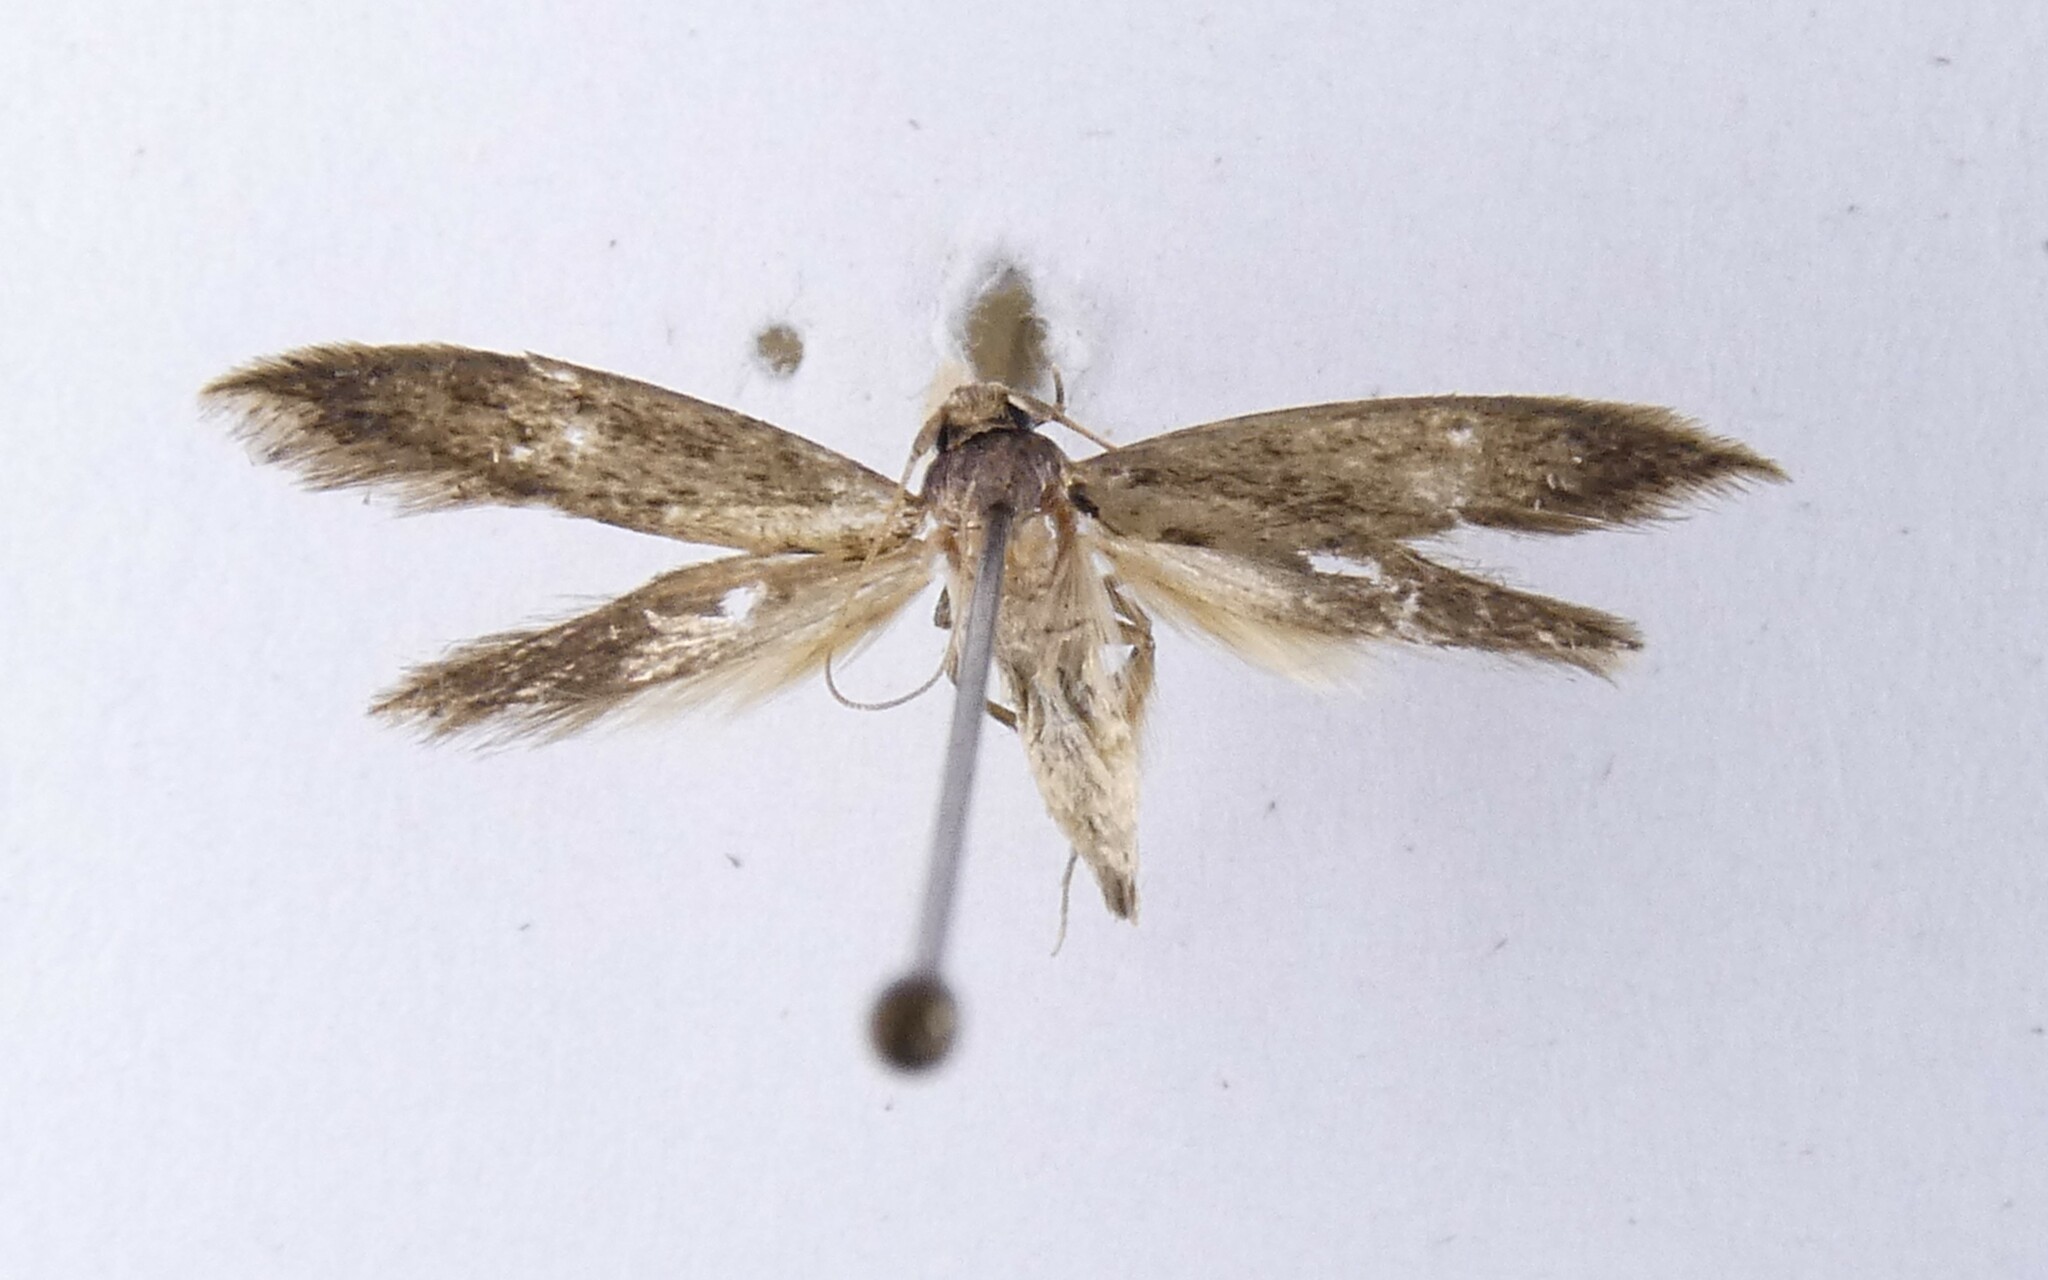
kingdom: Animalia
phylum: Arthropoda
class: Insecta
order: Lepidoptera
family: Tineidae
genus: Opogona
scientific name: Opogona omoscopa
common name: Moth
